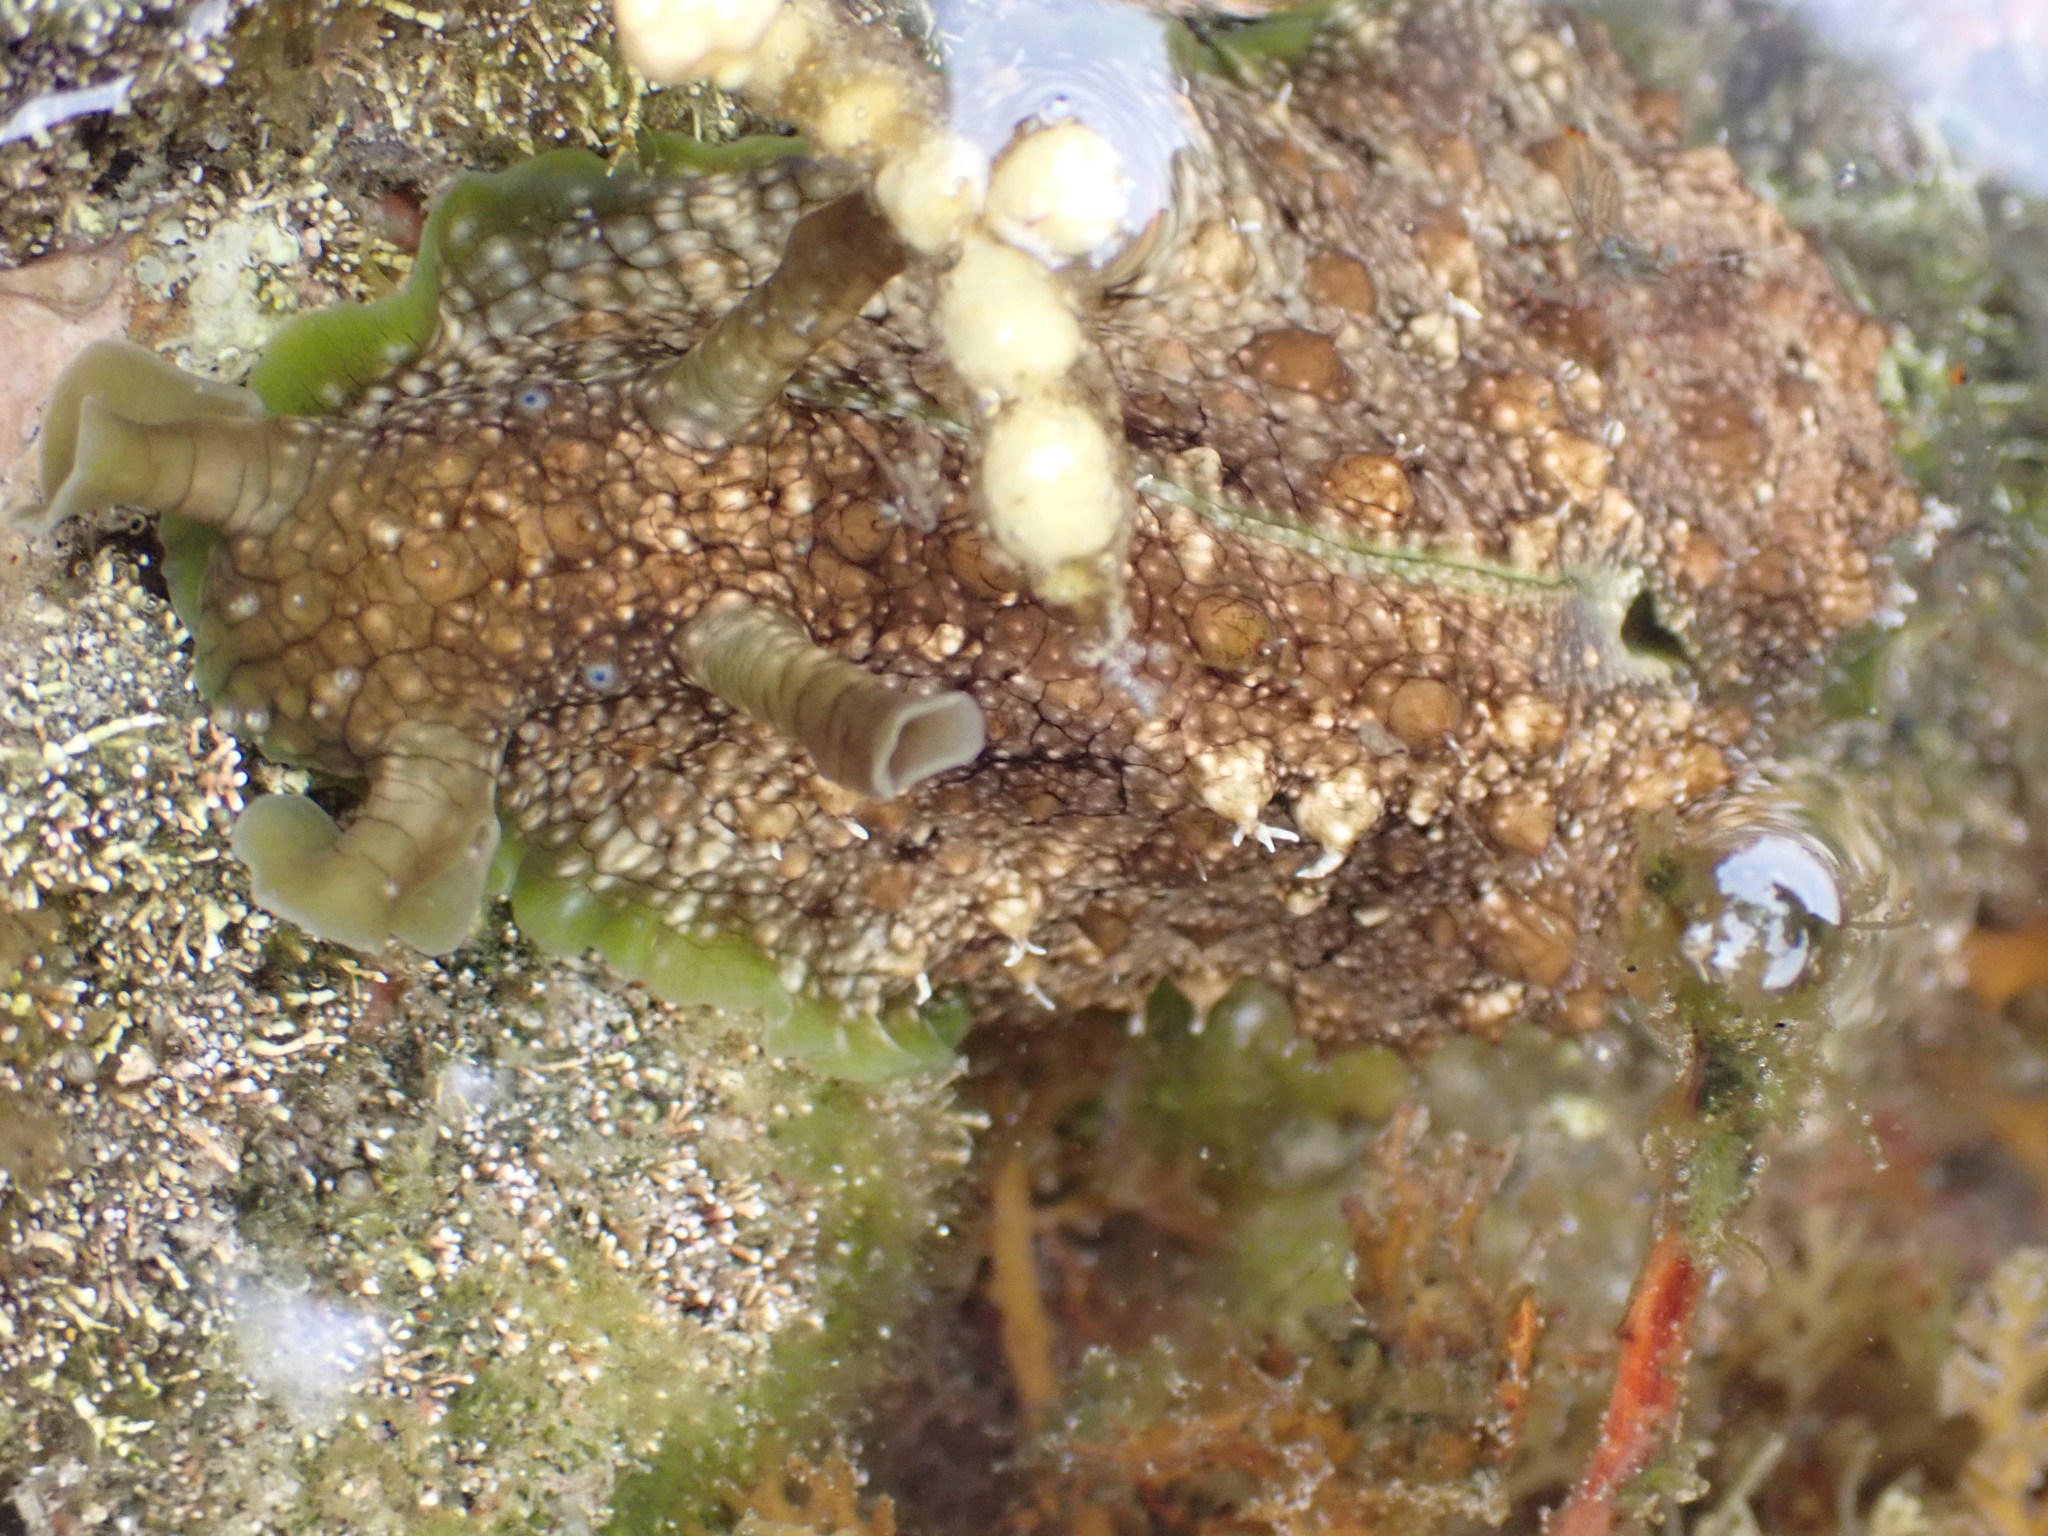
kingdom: Animalia
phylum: Mollusca
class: Gastropoda
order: Aplysiida
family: Aplysiidae
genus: Dolabrifera
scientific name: Dolabrifera brazieri
